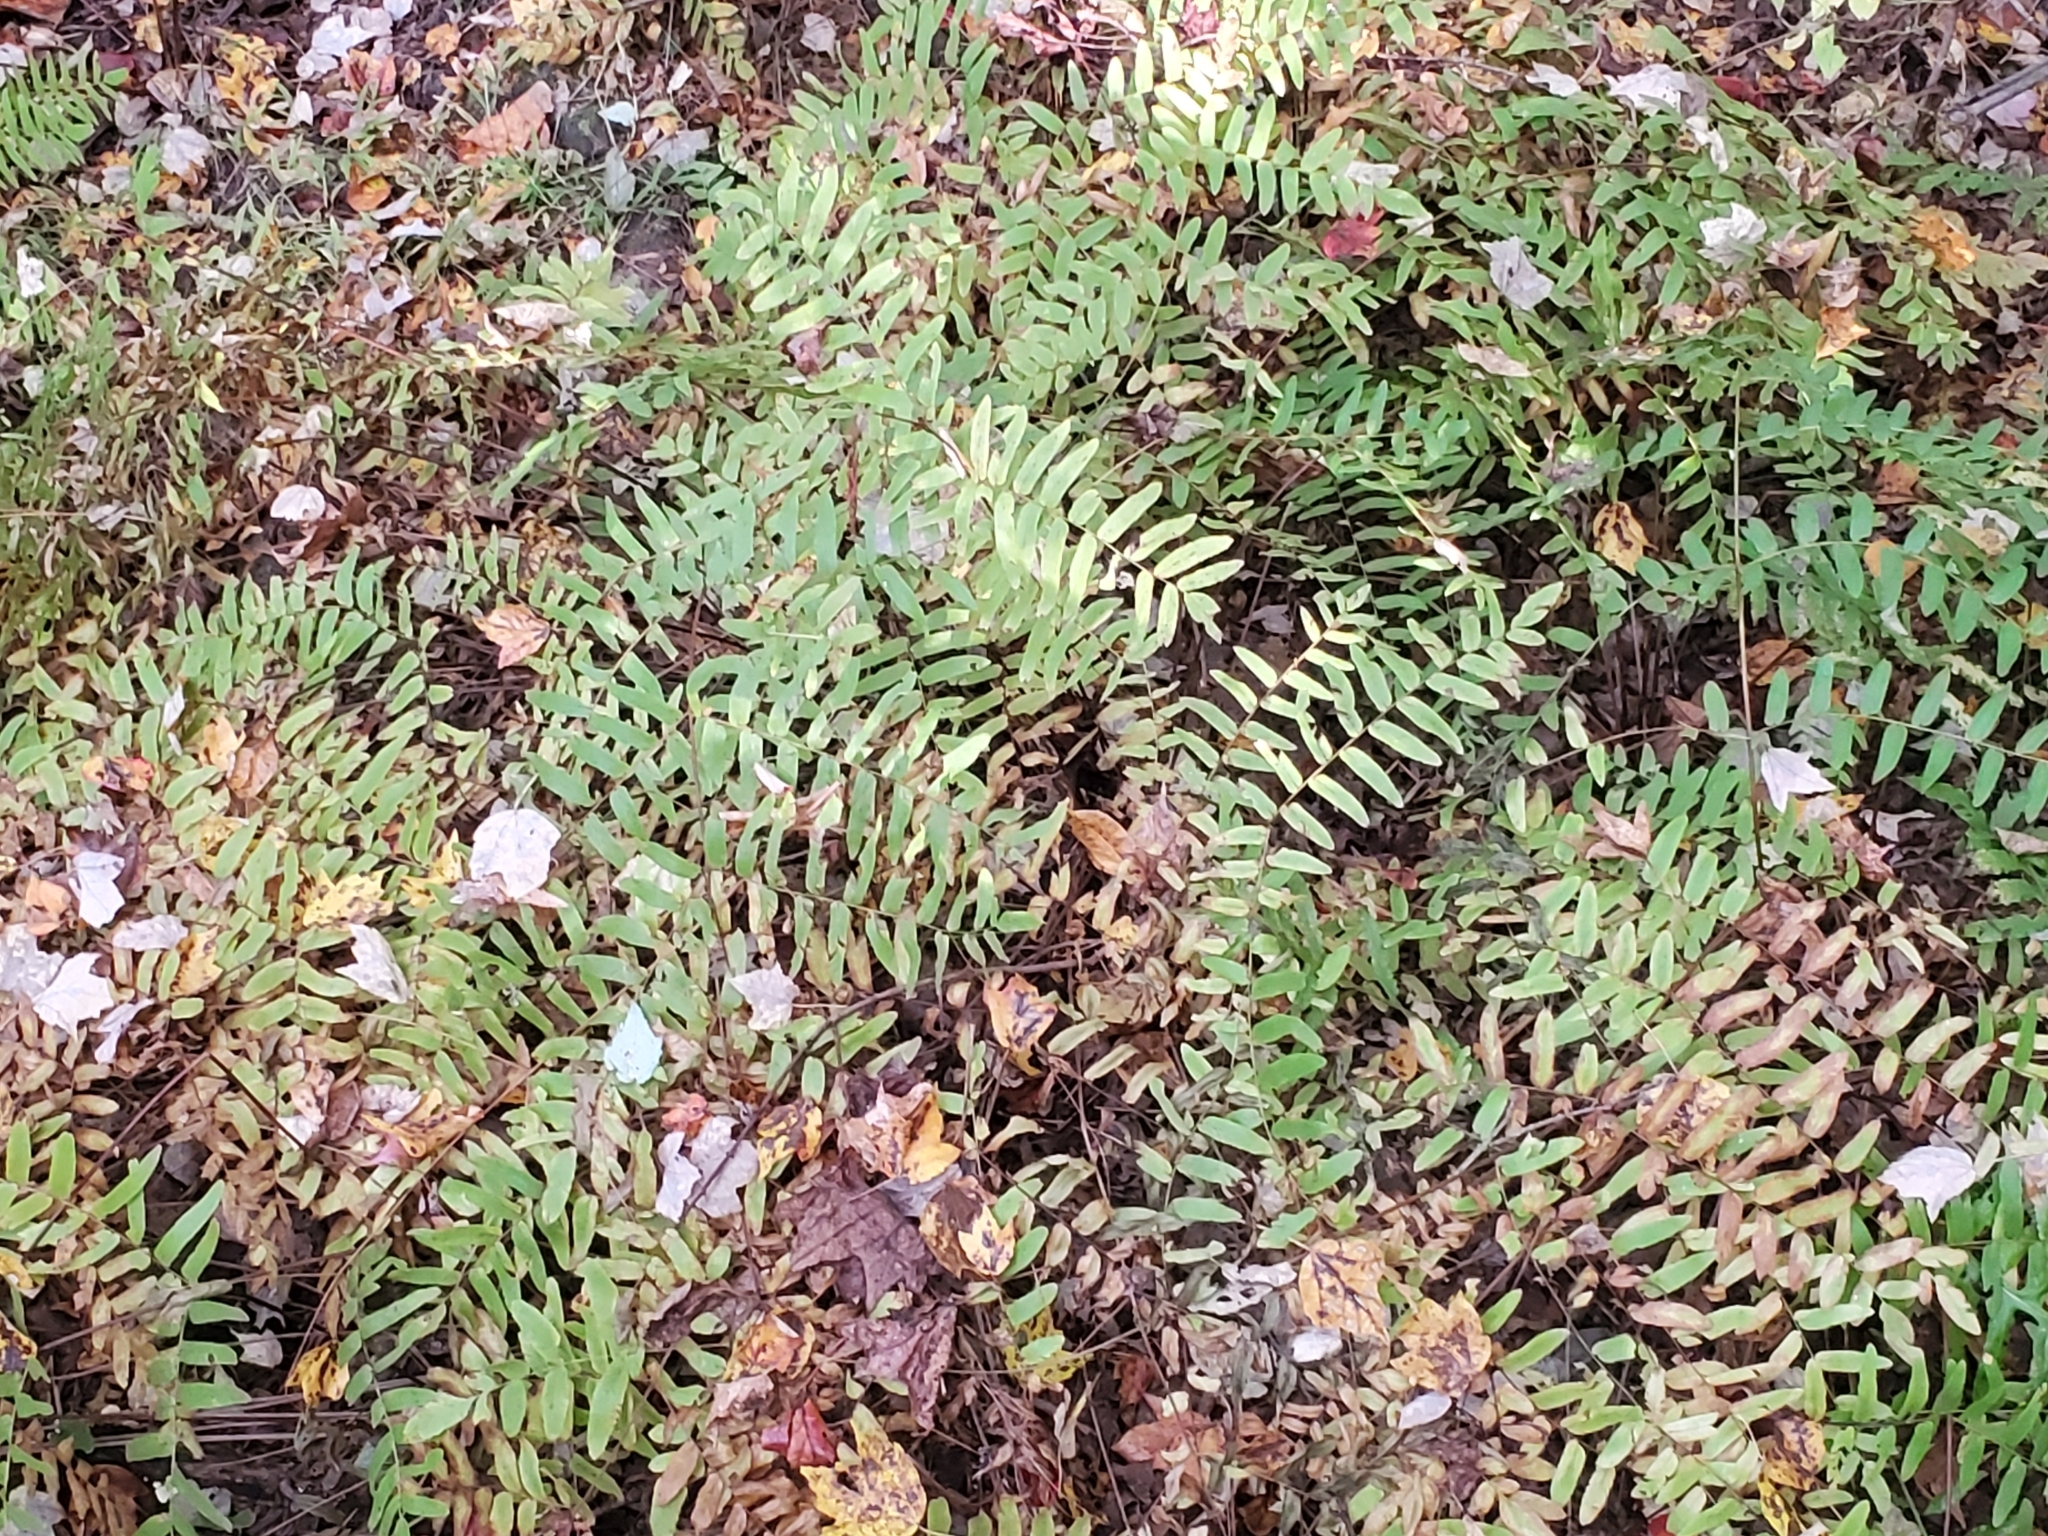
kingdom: Plantae
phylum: Tracheophyta
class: Polypodiopsida
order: Osmundales
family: Osmundaceae
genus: Osmunda
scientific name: Osmunda spectabilis
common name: American royal fern
